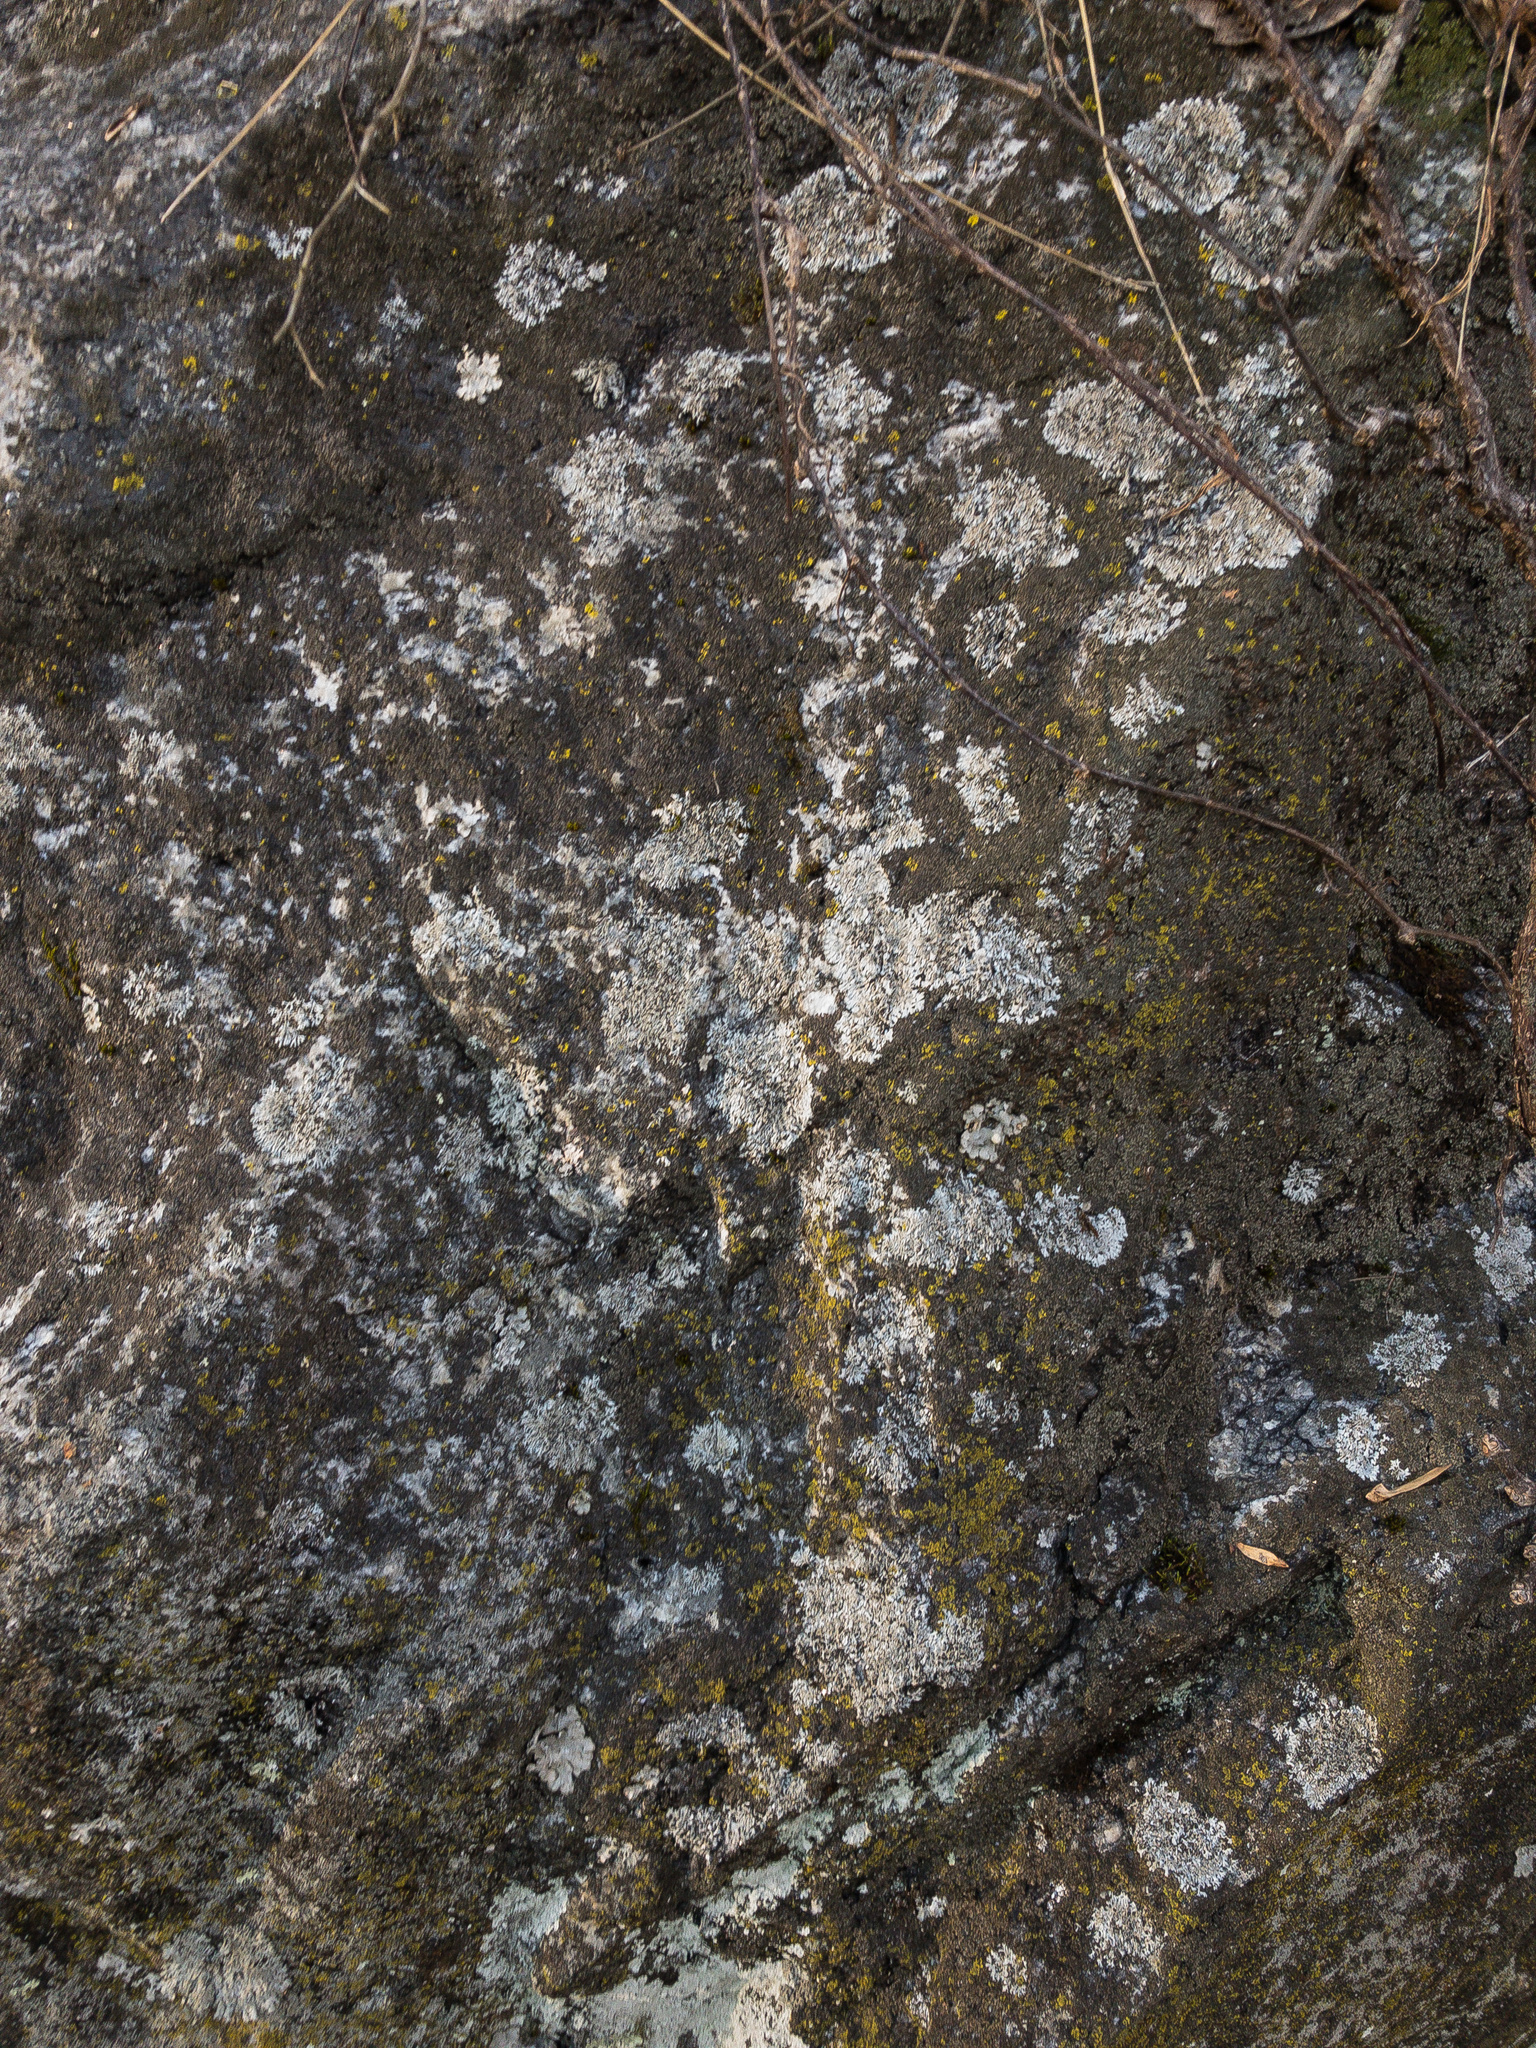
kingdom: Fungi
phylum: Ascomycota
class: Lecanoromycetes
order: Caliciales
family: Physciaceae
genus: Physcia
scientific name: Physcia phaea
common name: Black-eyed rosette lichen
